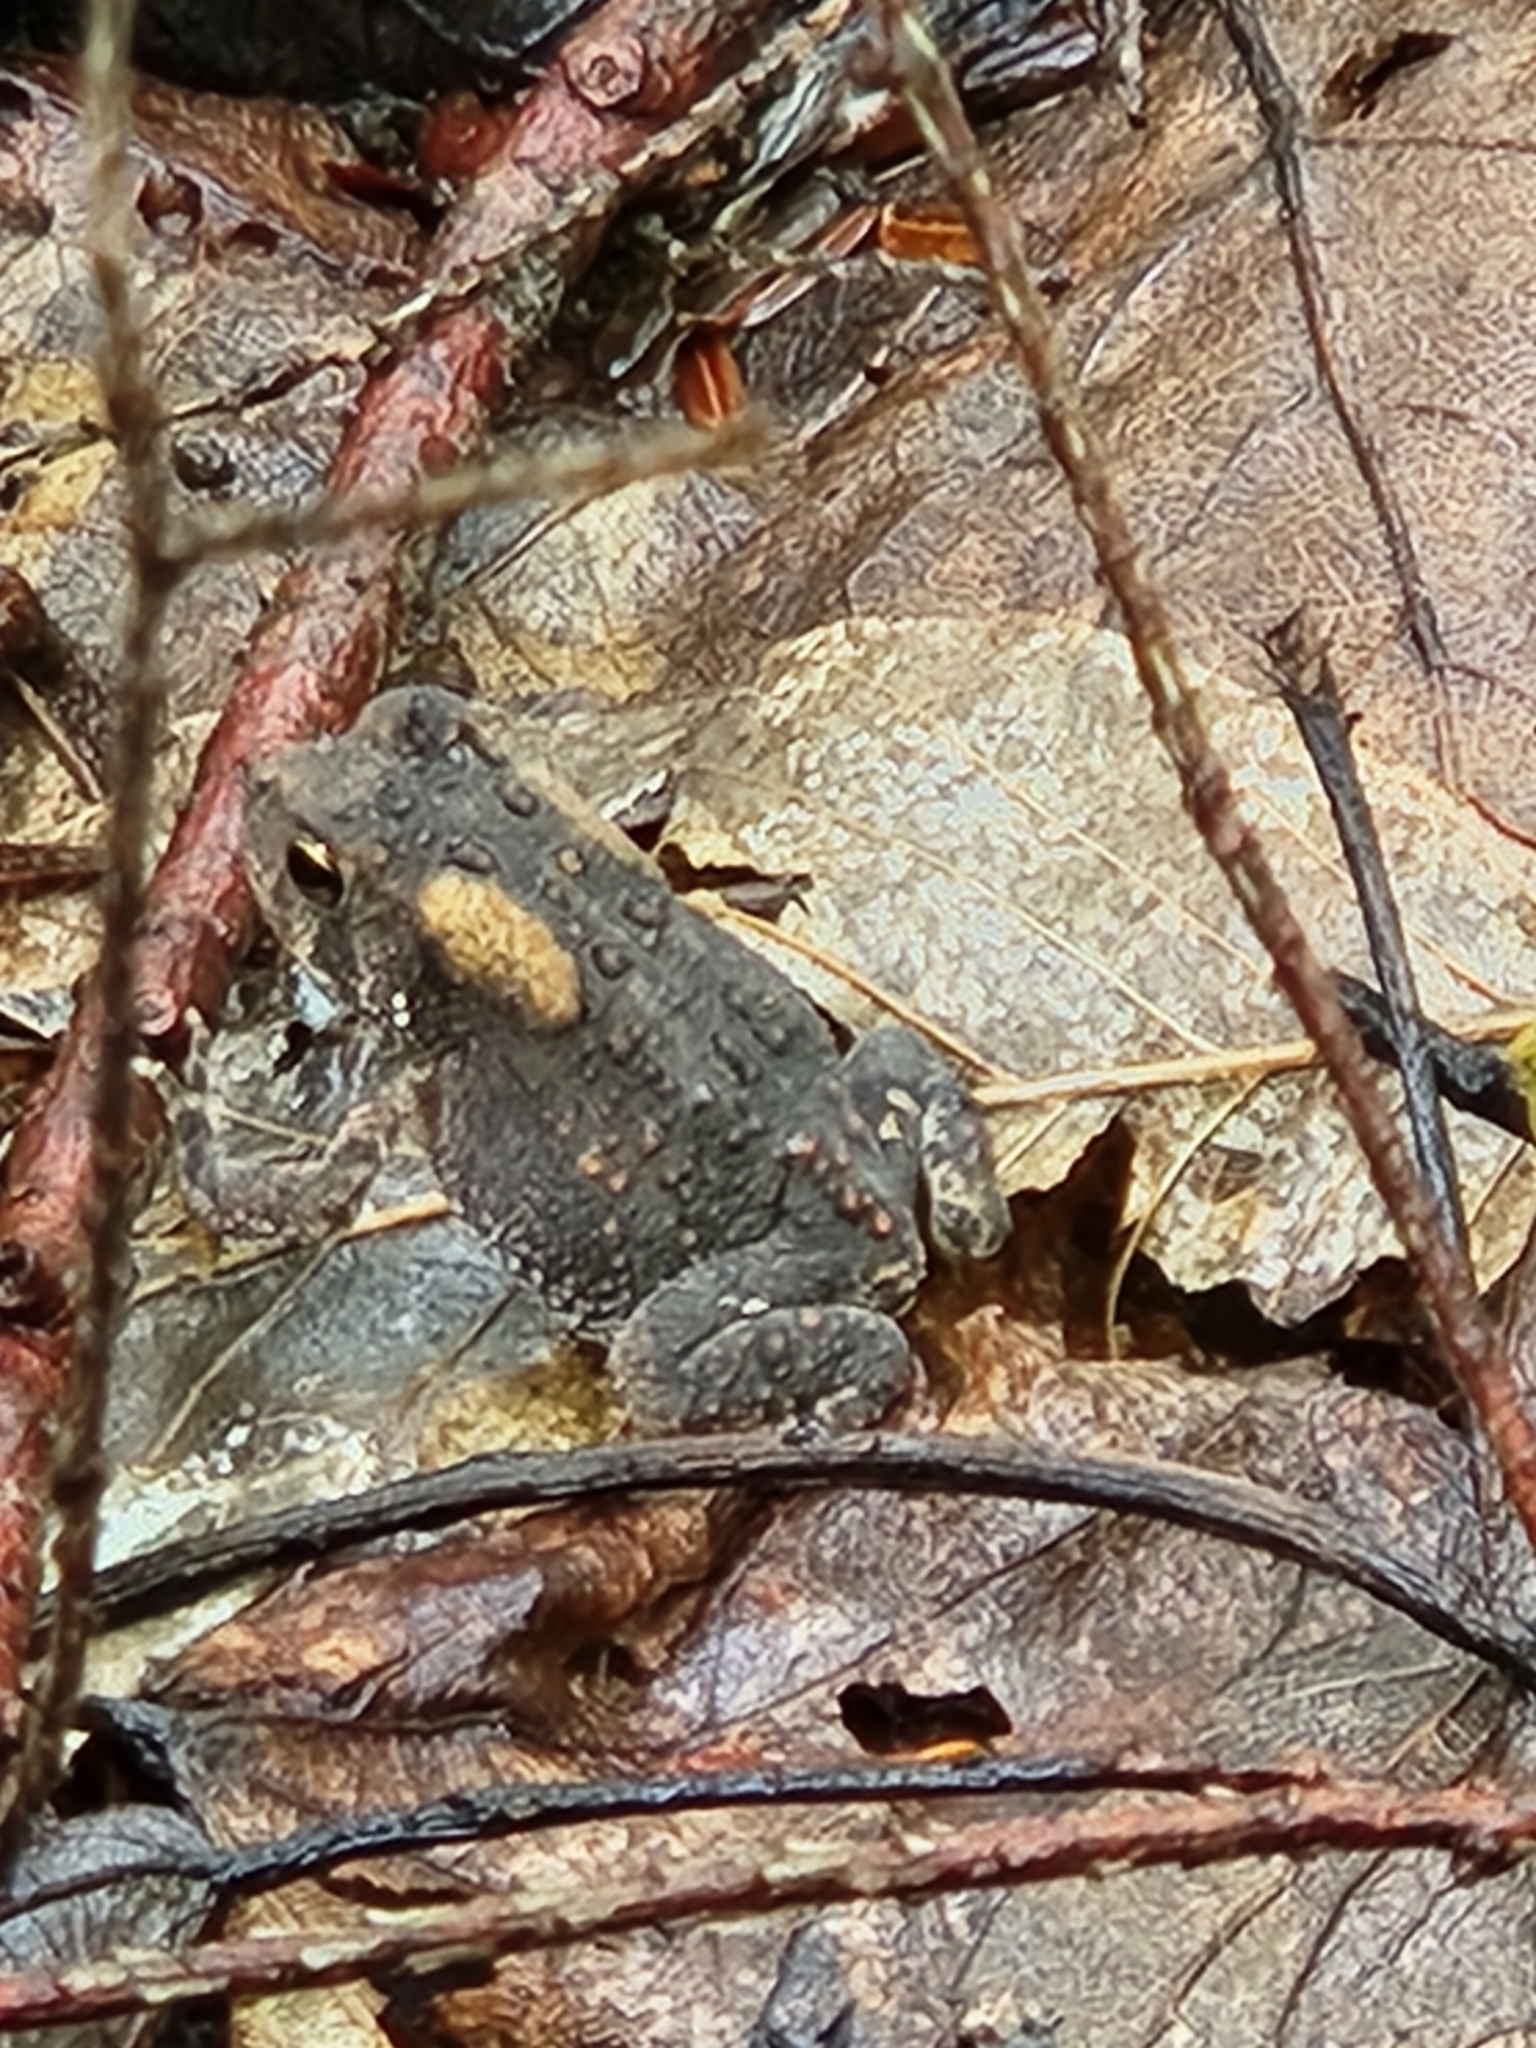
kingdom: Animalia
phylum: Chordata
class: Amphibia
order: Anura
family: Bufonidae
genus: Anaxyrus
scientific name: Anaxyrus americanus
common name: American toad
